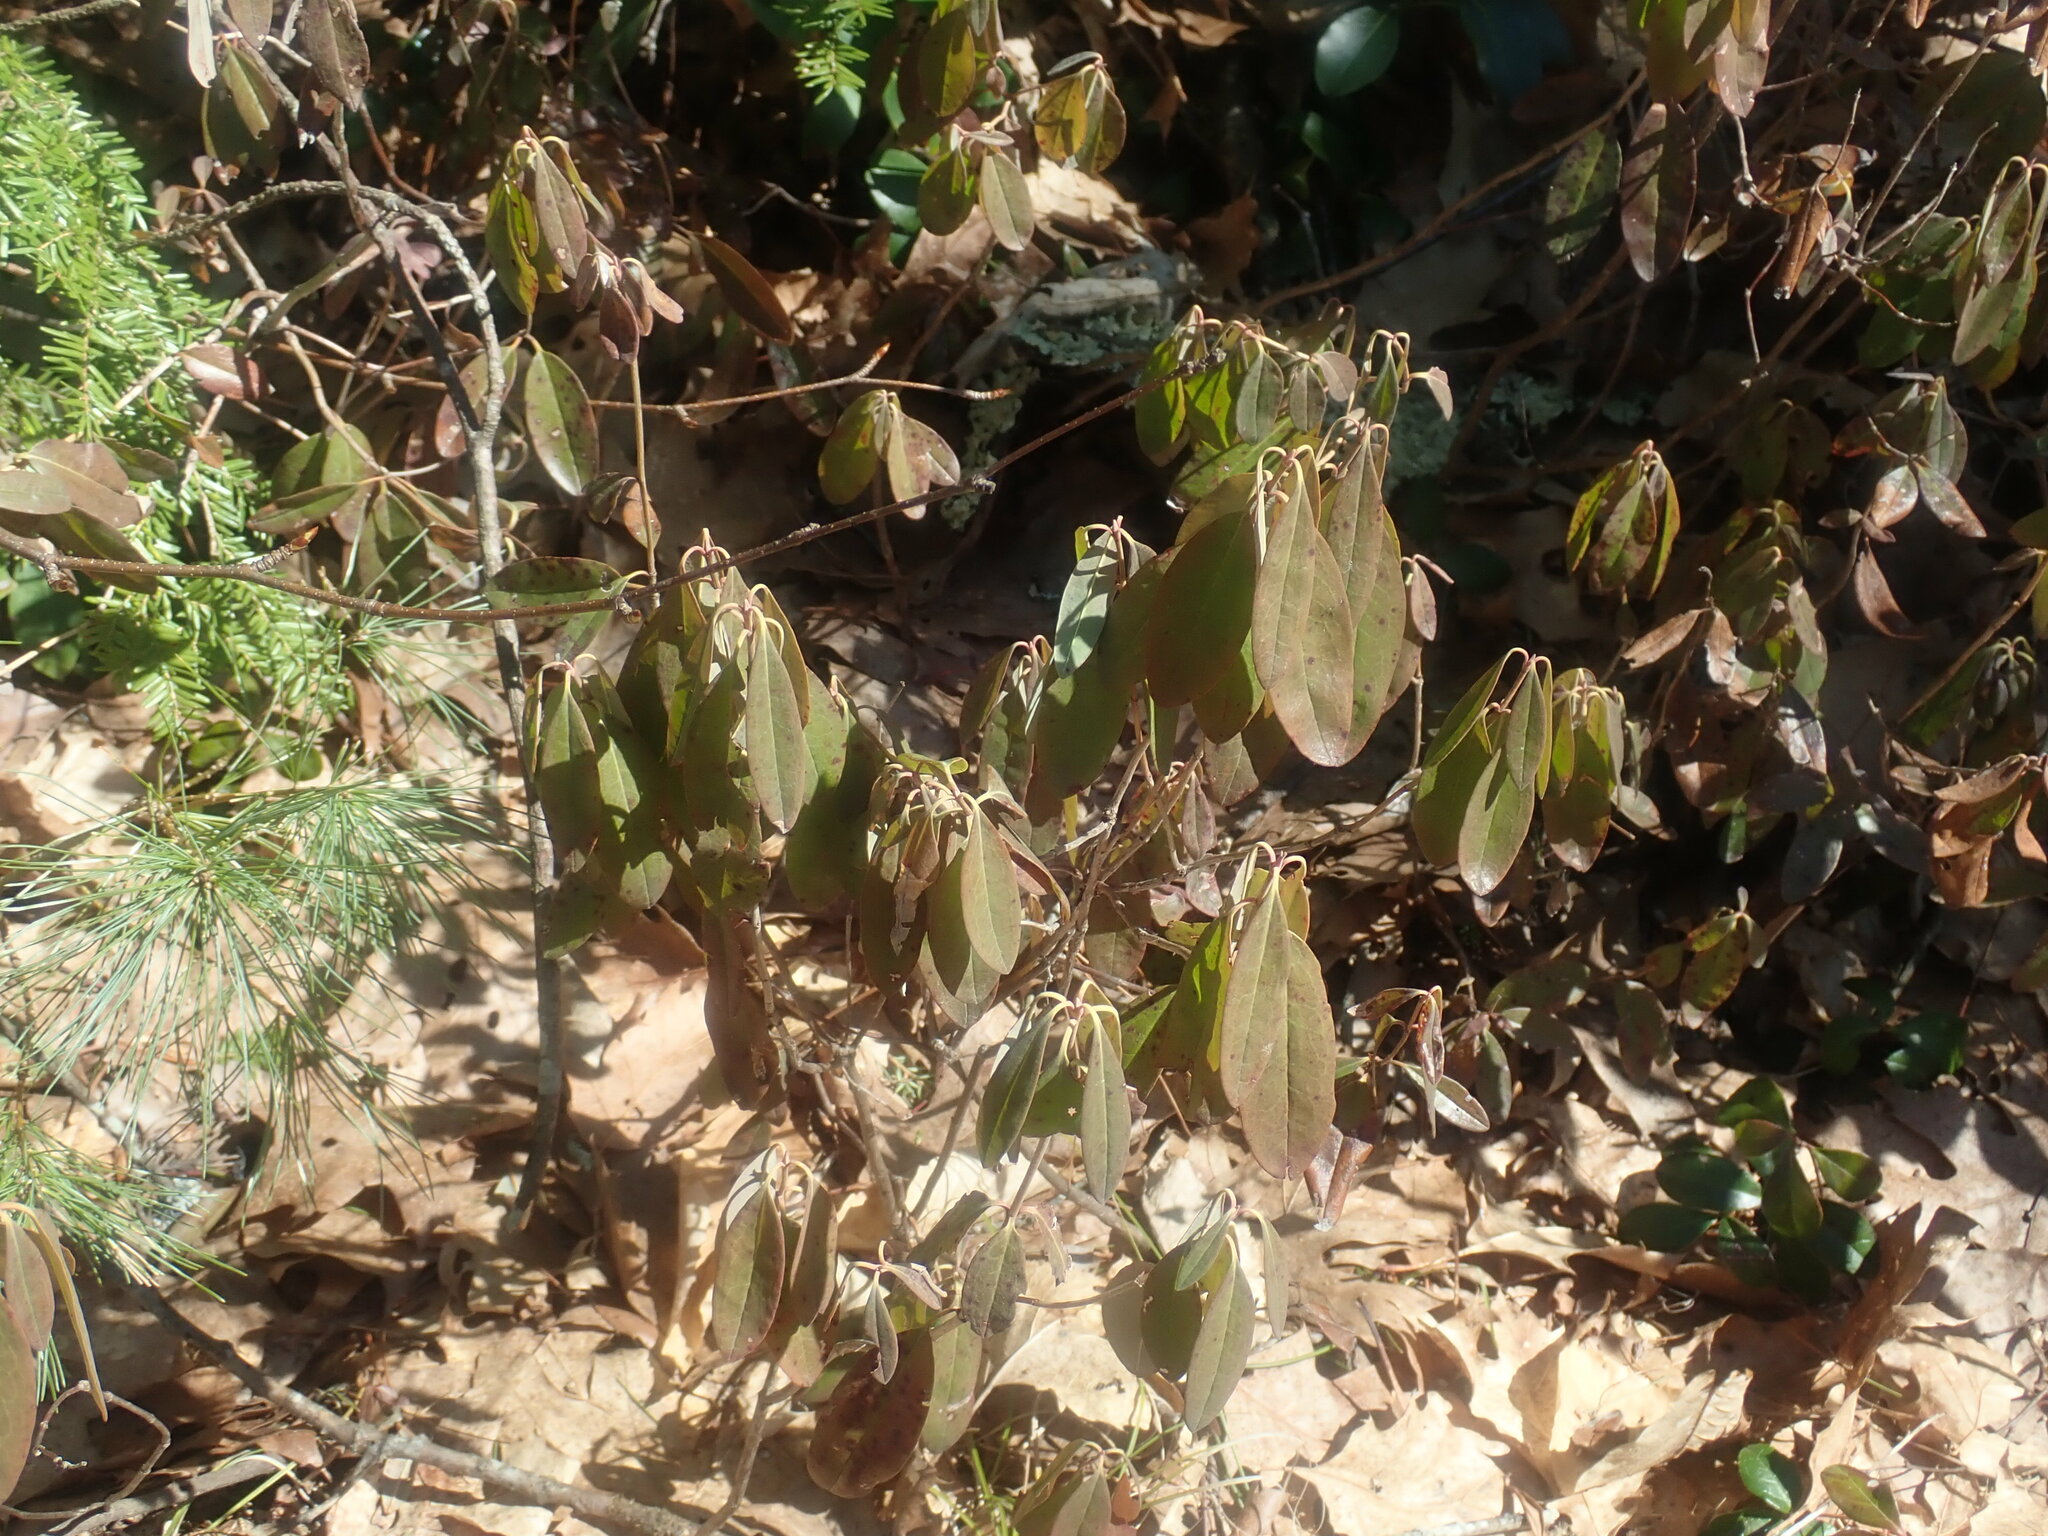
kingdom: Plantae
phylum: Tracheophyta
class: Magnoliopsida
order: Ericales
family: Ericaceae
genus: Kalmia
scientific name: Kalmia angustifolia
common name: Sheep-laurel
